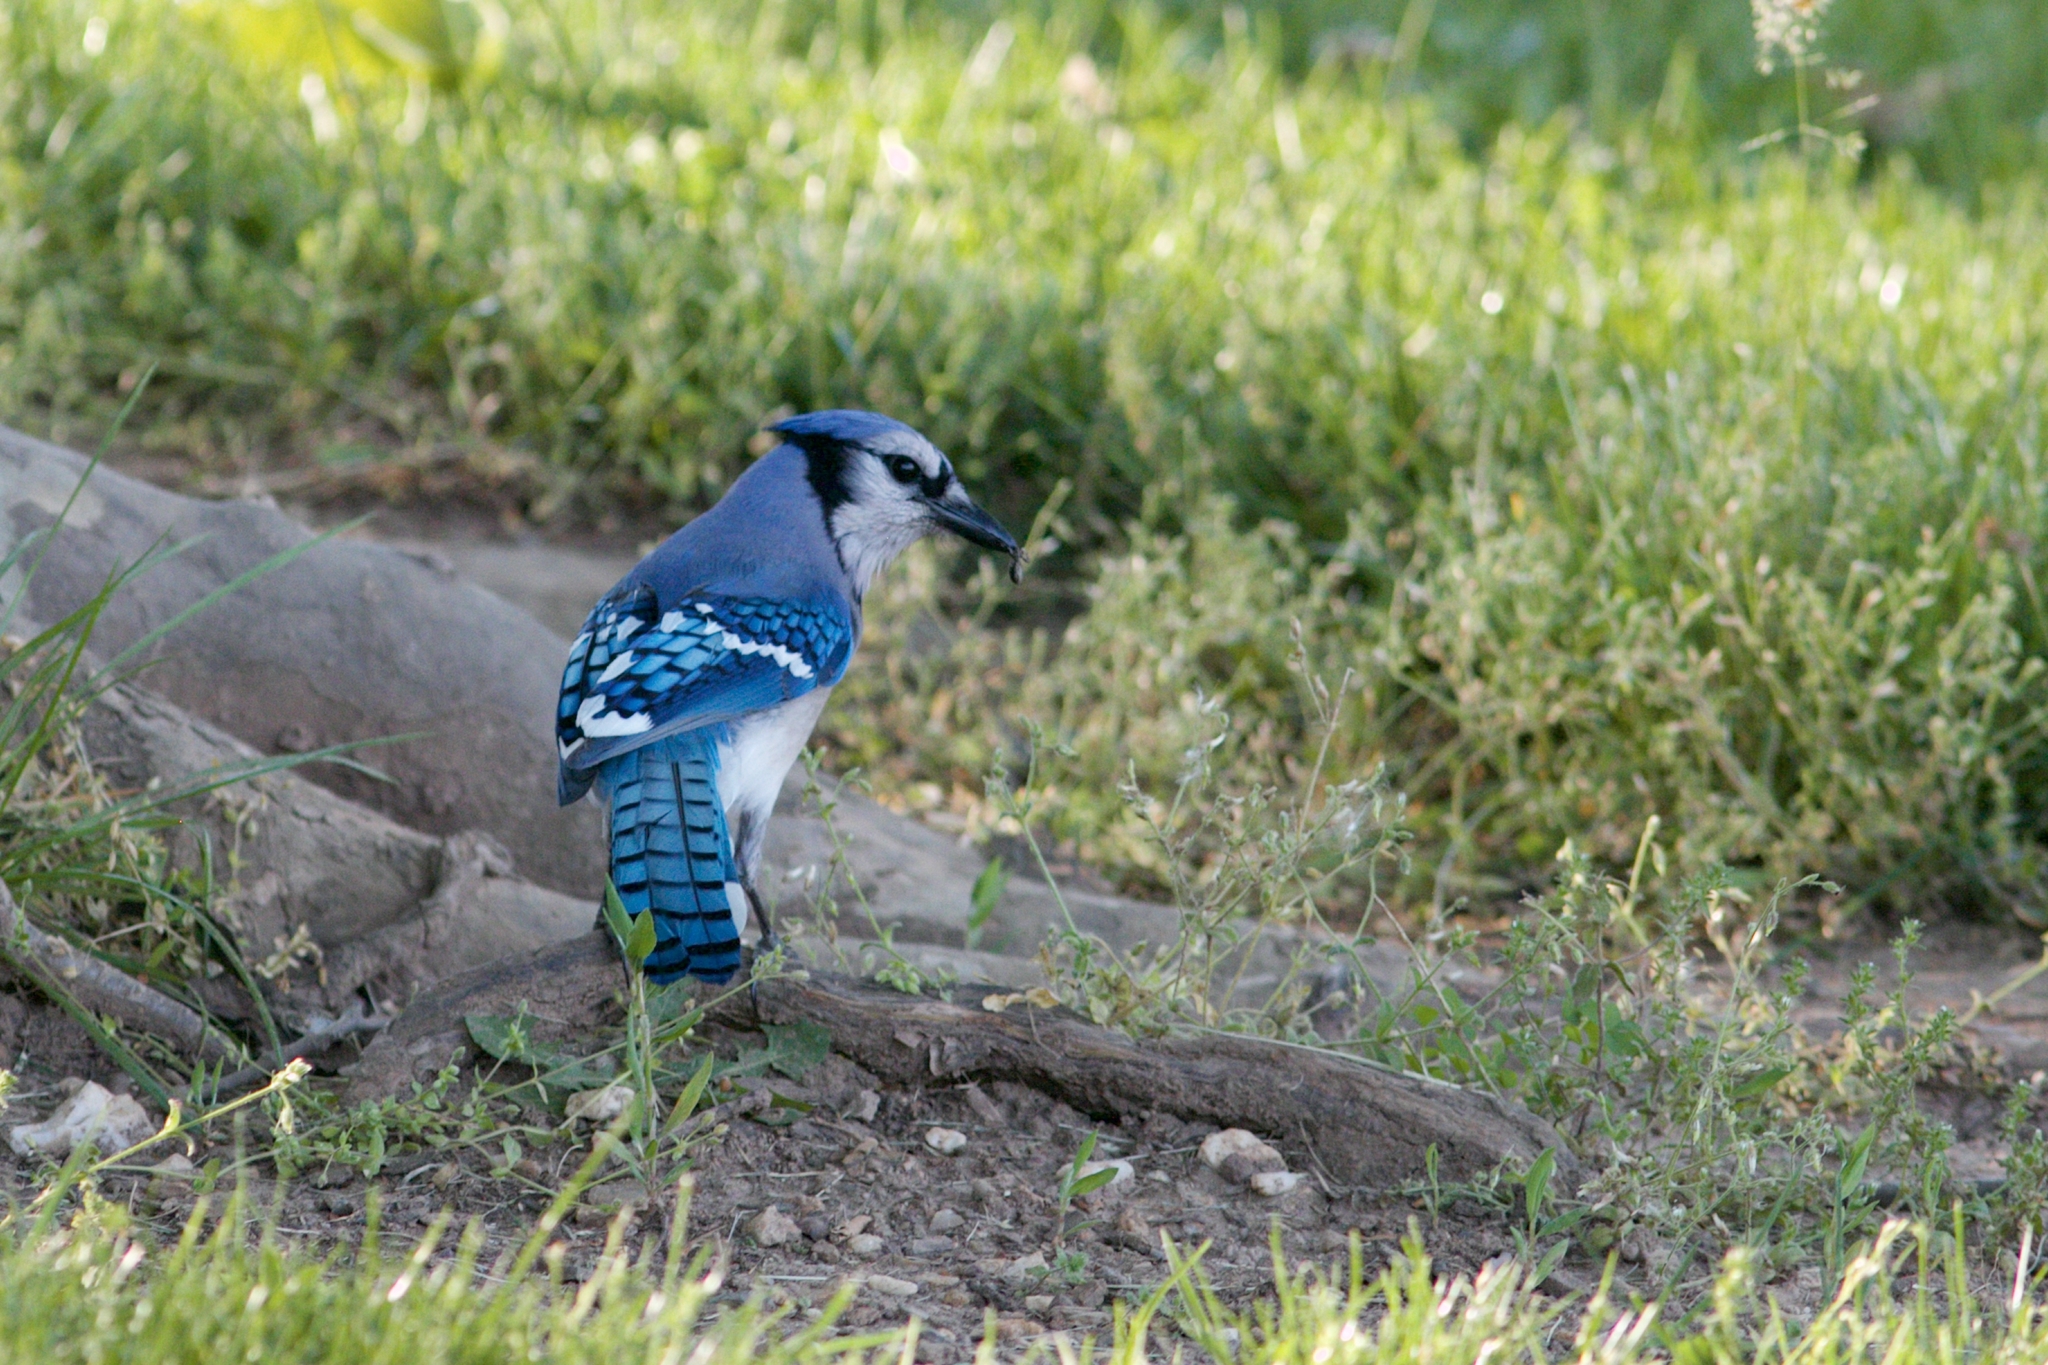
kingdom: Animalia
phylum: Chordata
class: Aves
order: Passeriformes
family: Corvidae
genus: Cyanocitta
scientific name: Cyanocitta cristata
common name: Blue jay
